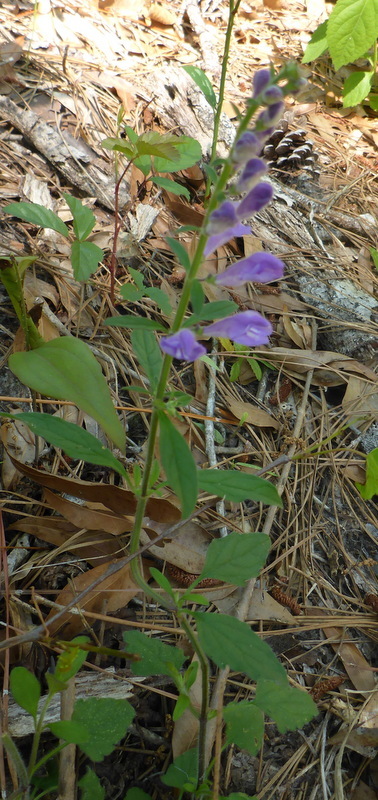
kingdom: Plantae
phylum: Tracheophyta
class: Magnoliopsida
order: Lamiales
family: Lamiaceae
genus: Scutellaria
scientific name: Scutellaria integrifolia
